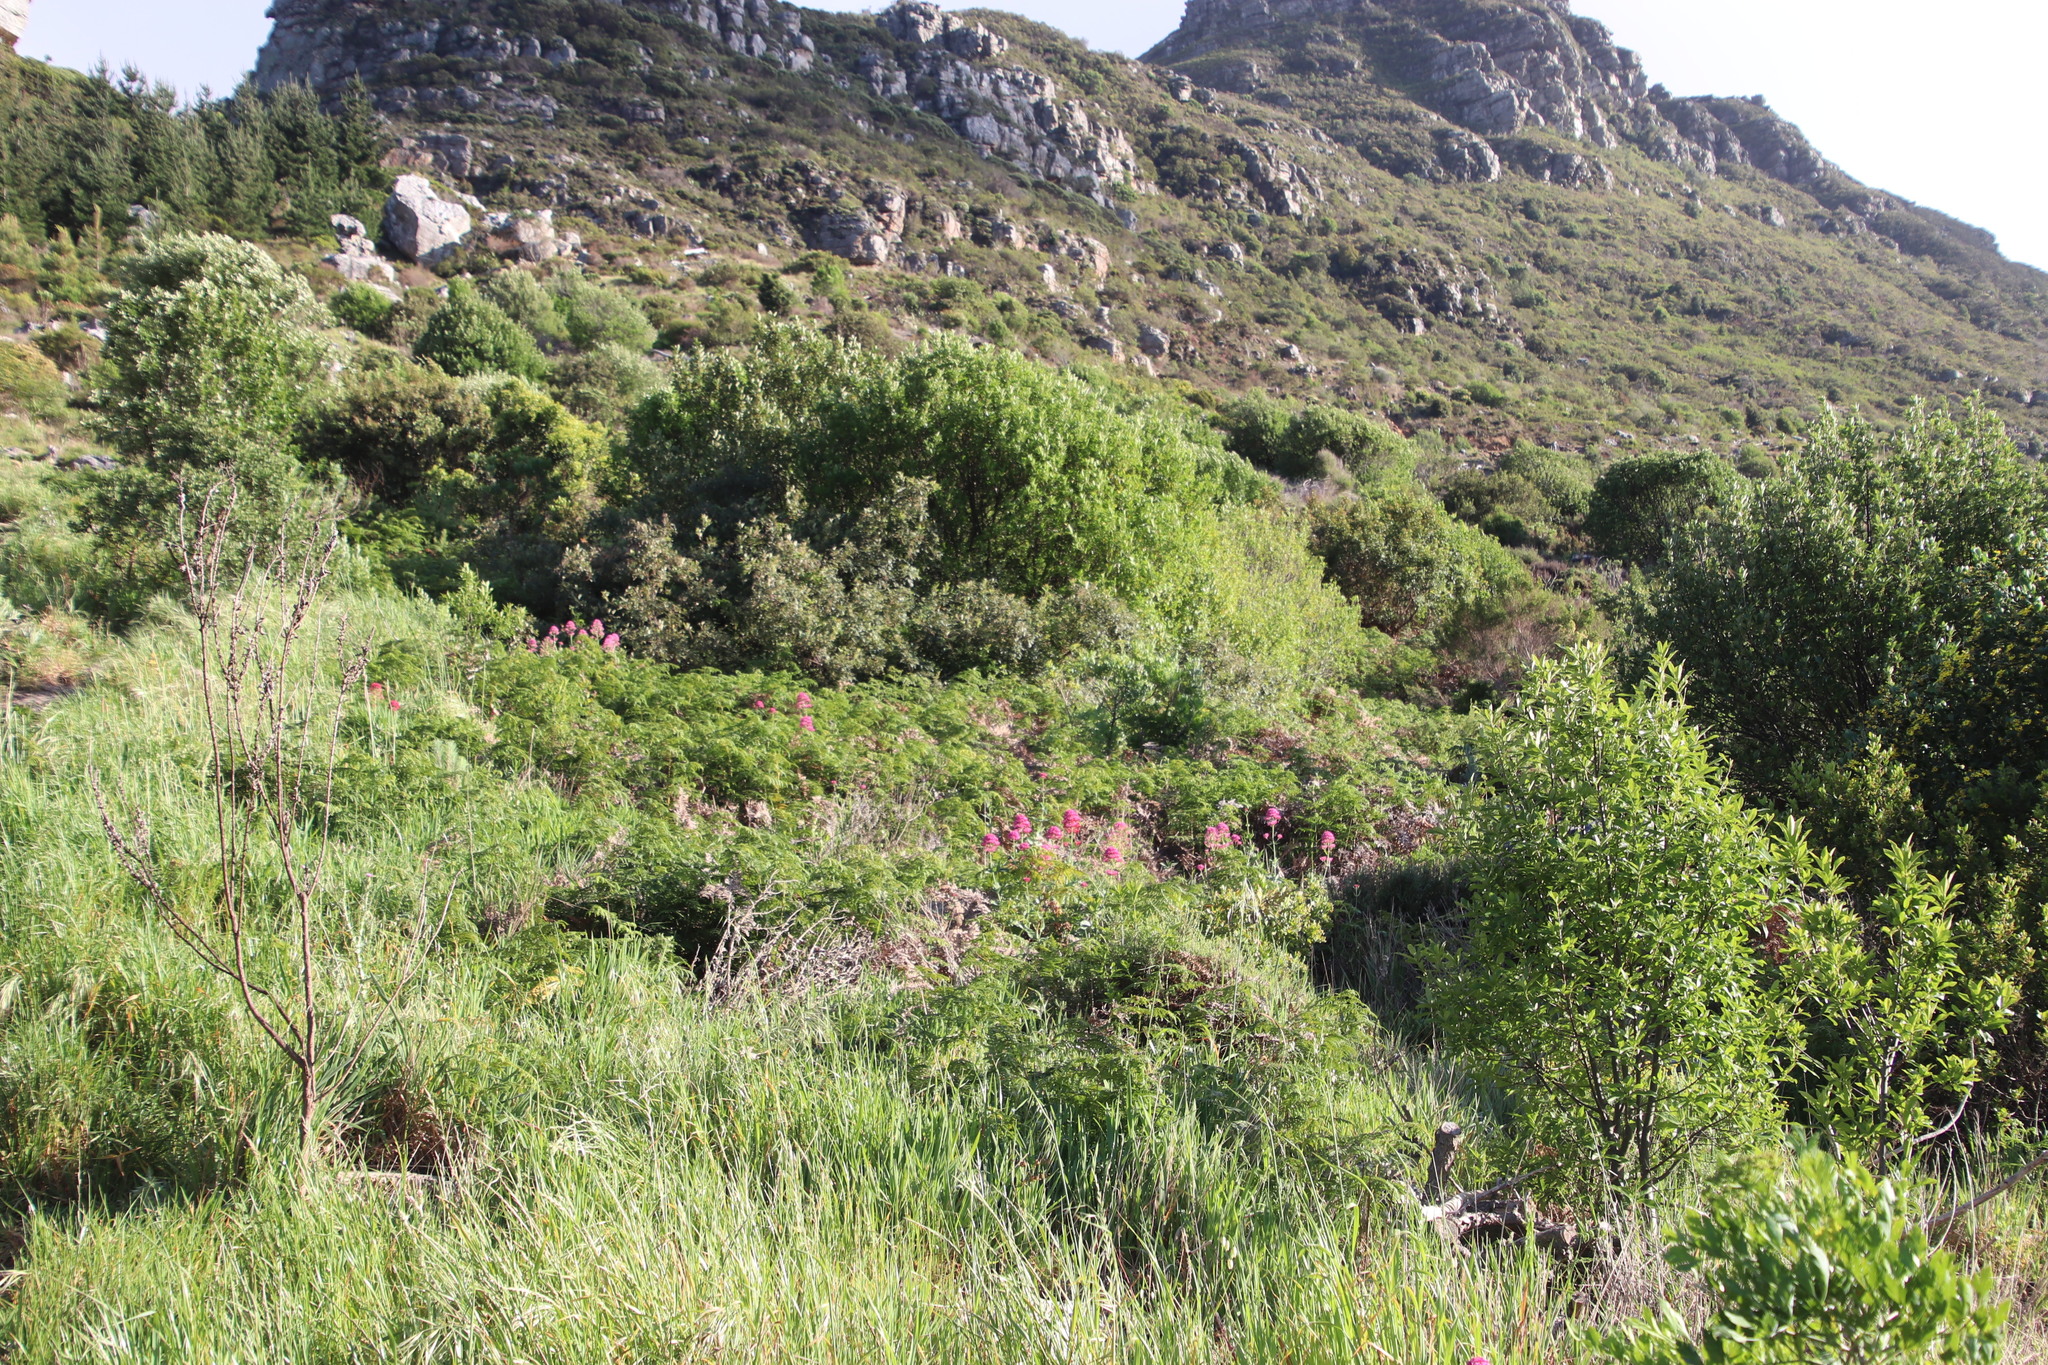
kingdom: Plantae
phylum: Tracheophyta
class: Magnoliopsida
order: Dipsacales
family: Caprifoliaceae
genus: Centranthus
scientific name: Centranthus ruber
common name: Red valerian
